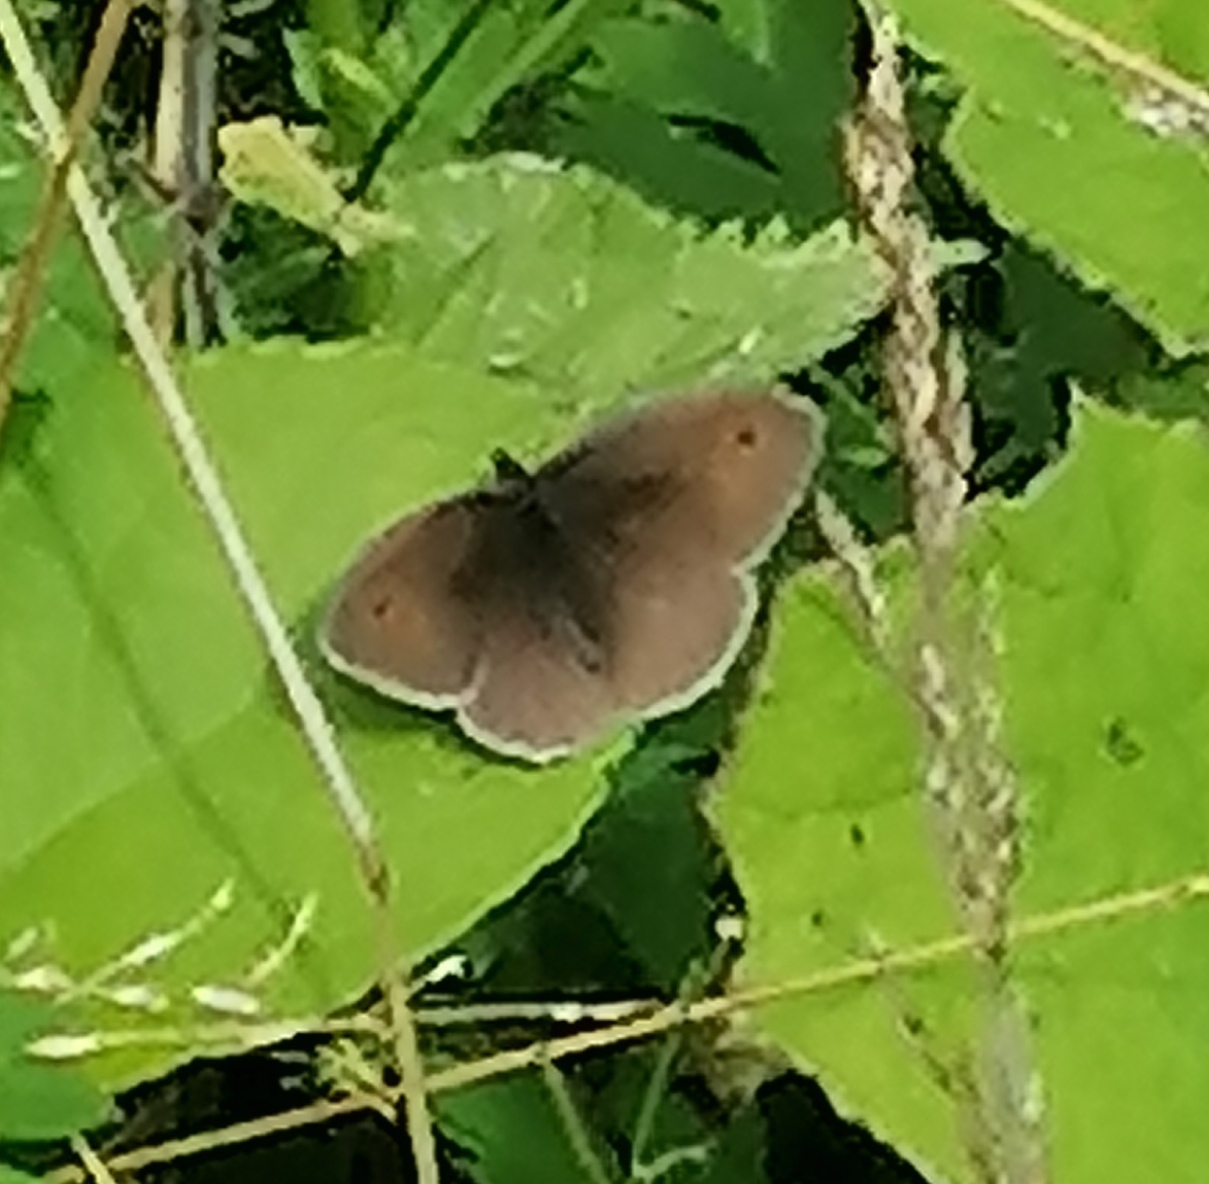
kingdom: Animalia
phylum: Arthropoda
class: Insecta
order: Lepidoptera
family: Nymphalidae
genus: Maniola
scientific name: Maniola jurtina
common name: Meadow brown
